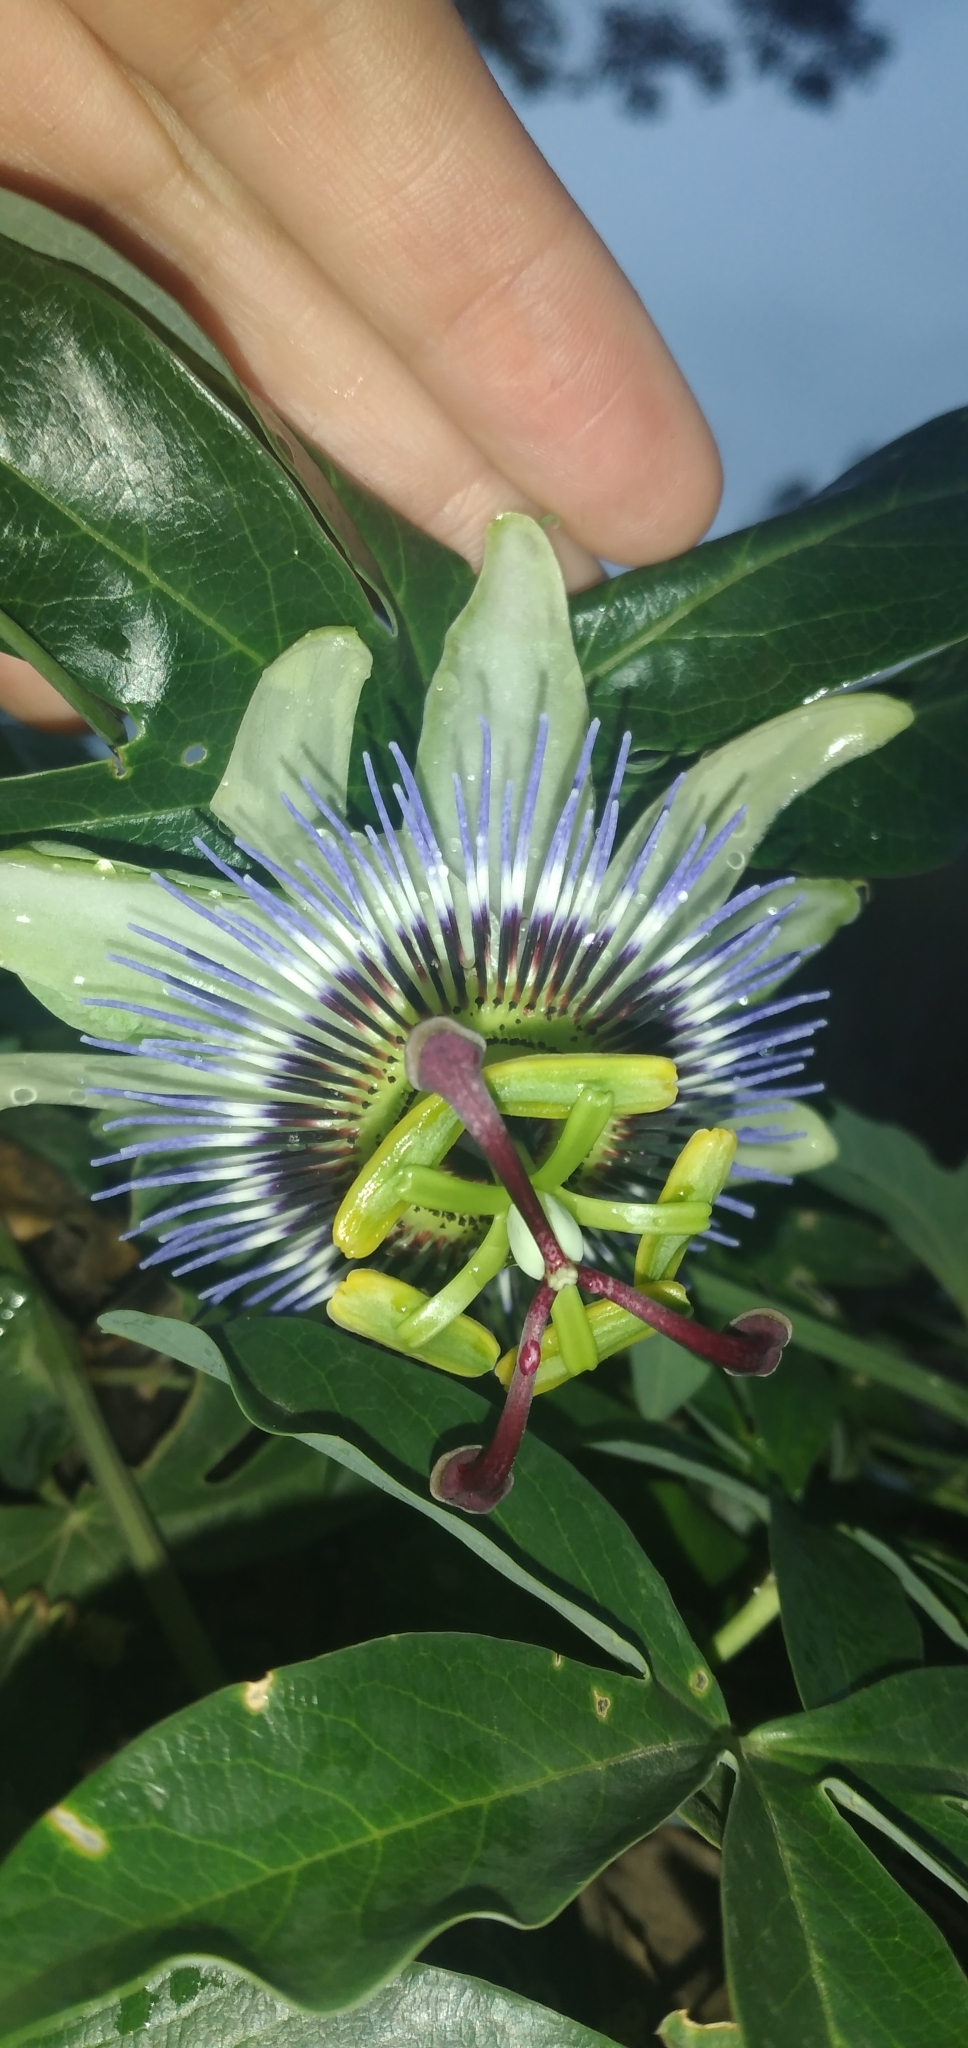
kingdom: Plantae
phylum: Tracheophyta
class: Magnoliopsida
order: Malpighiales
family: Passifloraceae
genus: Passiflora
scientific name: Passiflora caerulea
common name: Blue passionflower
